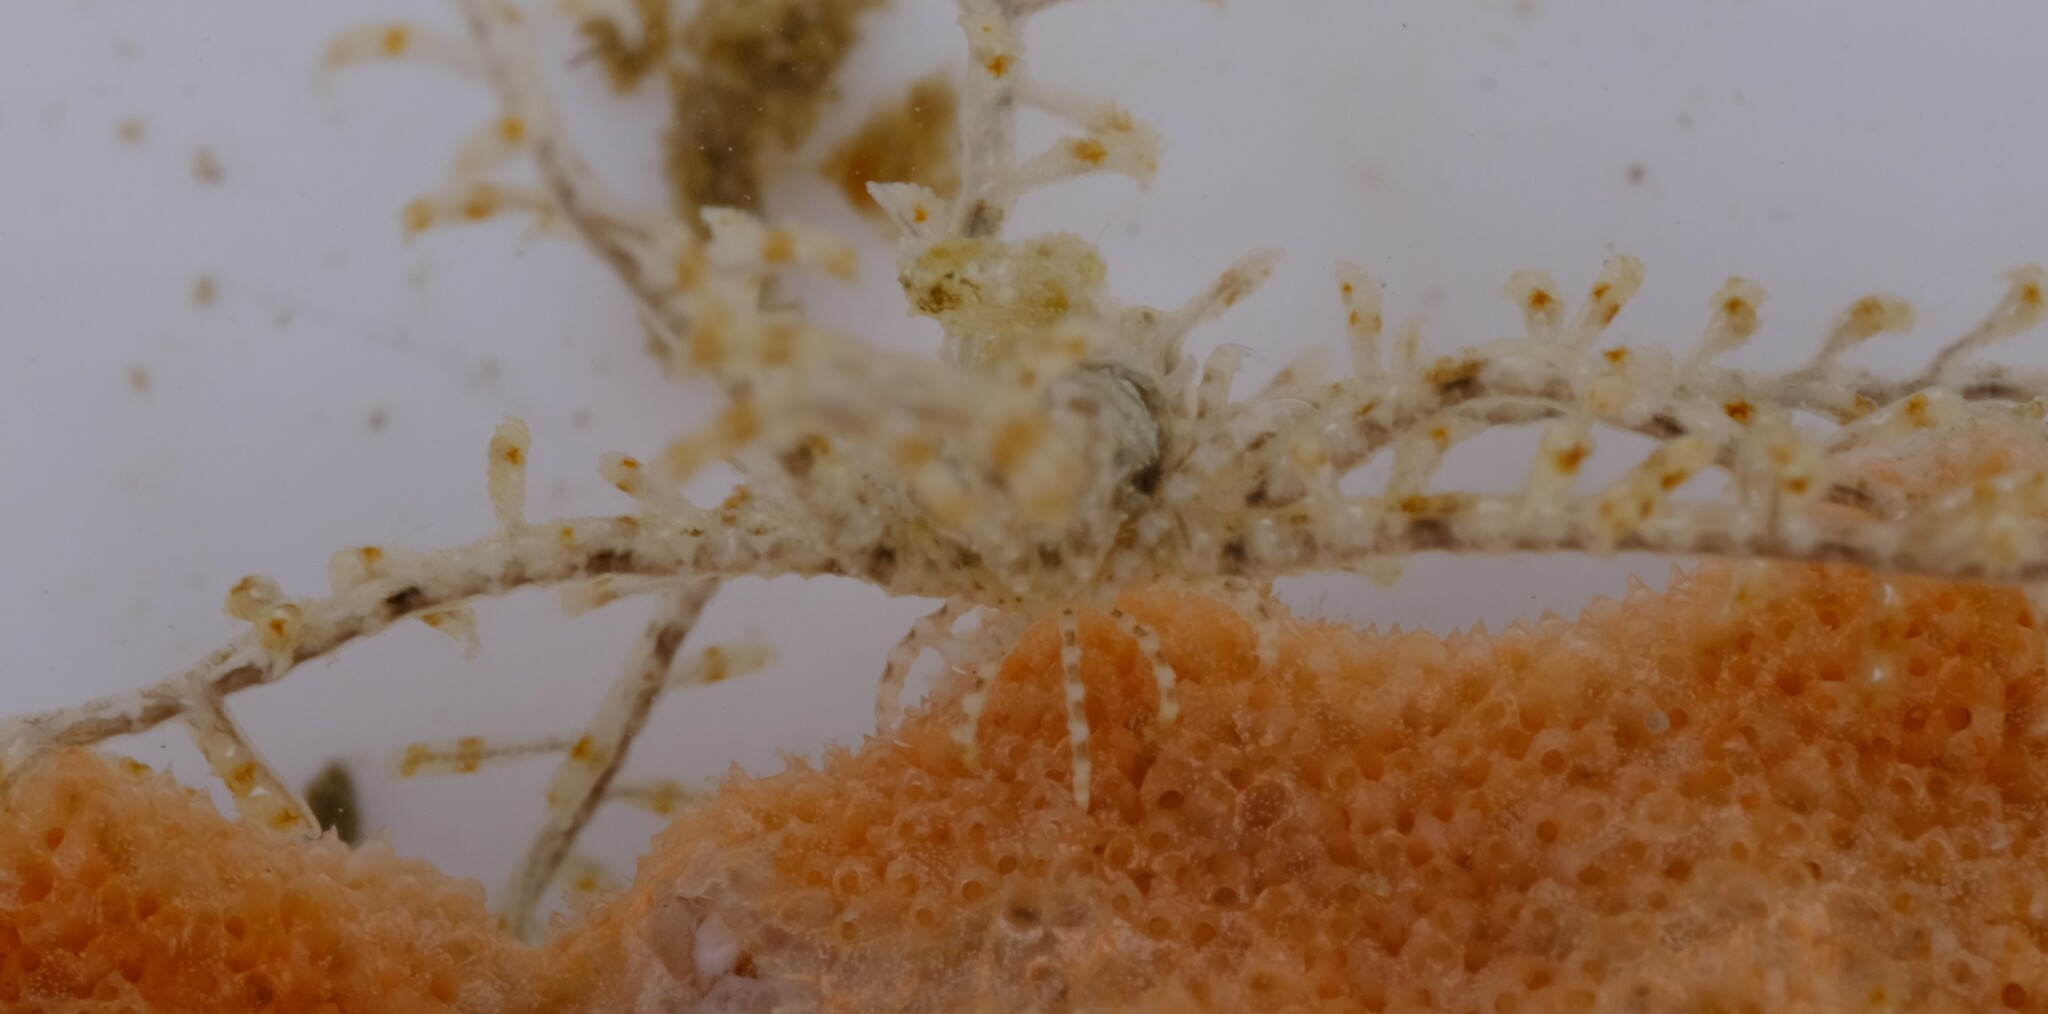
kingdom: Animalia
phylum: Echinodermata
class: Crinoidea
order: Comatulida
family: Antedonidae
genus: Antedon
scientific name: Antedon loveni
